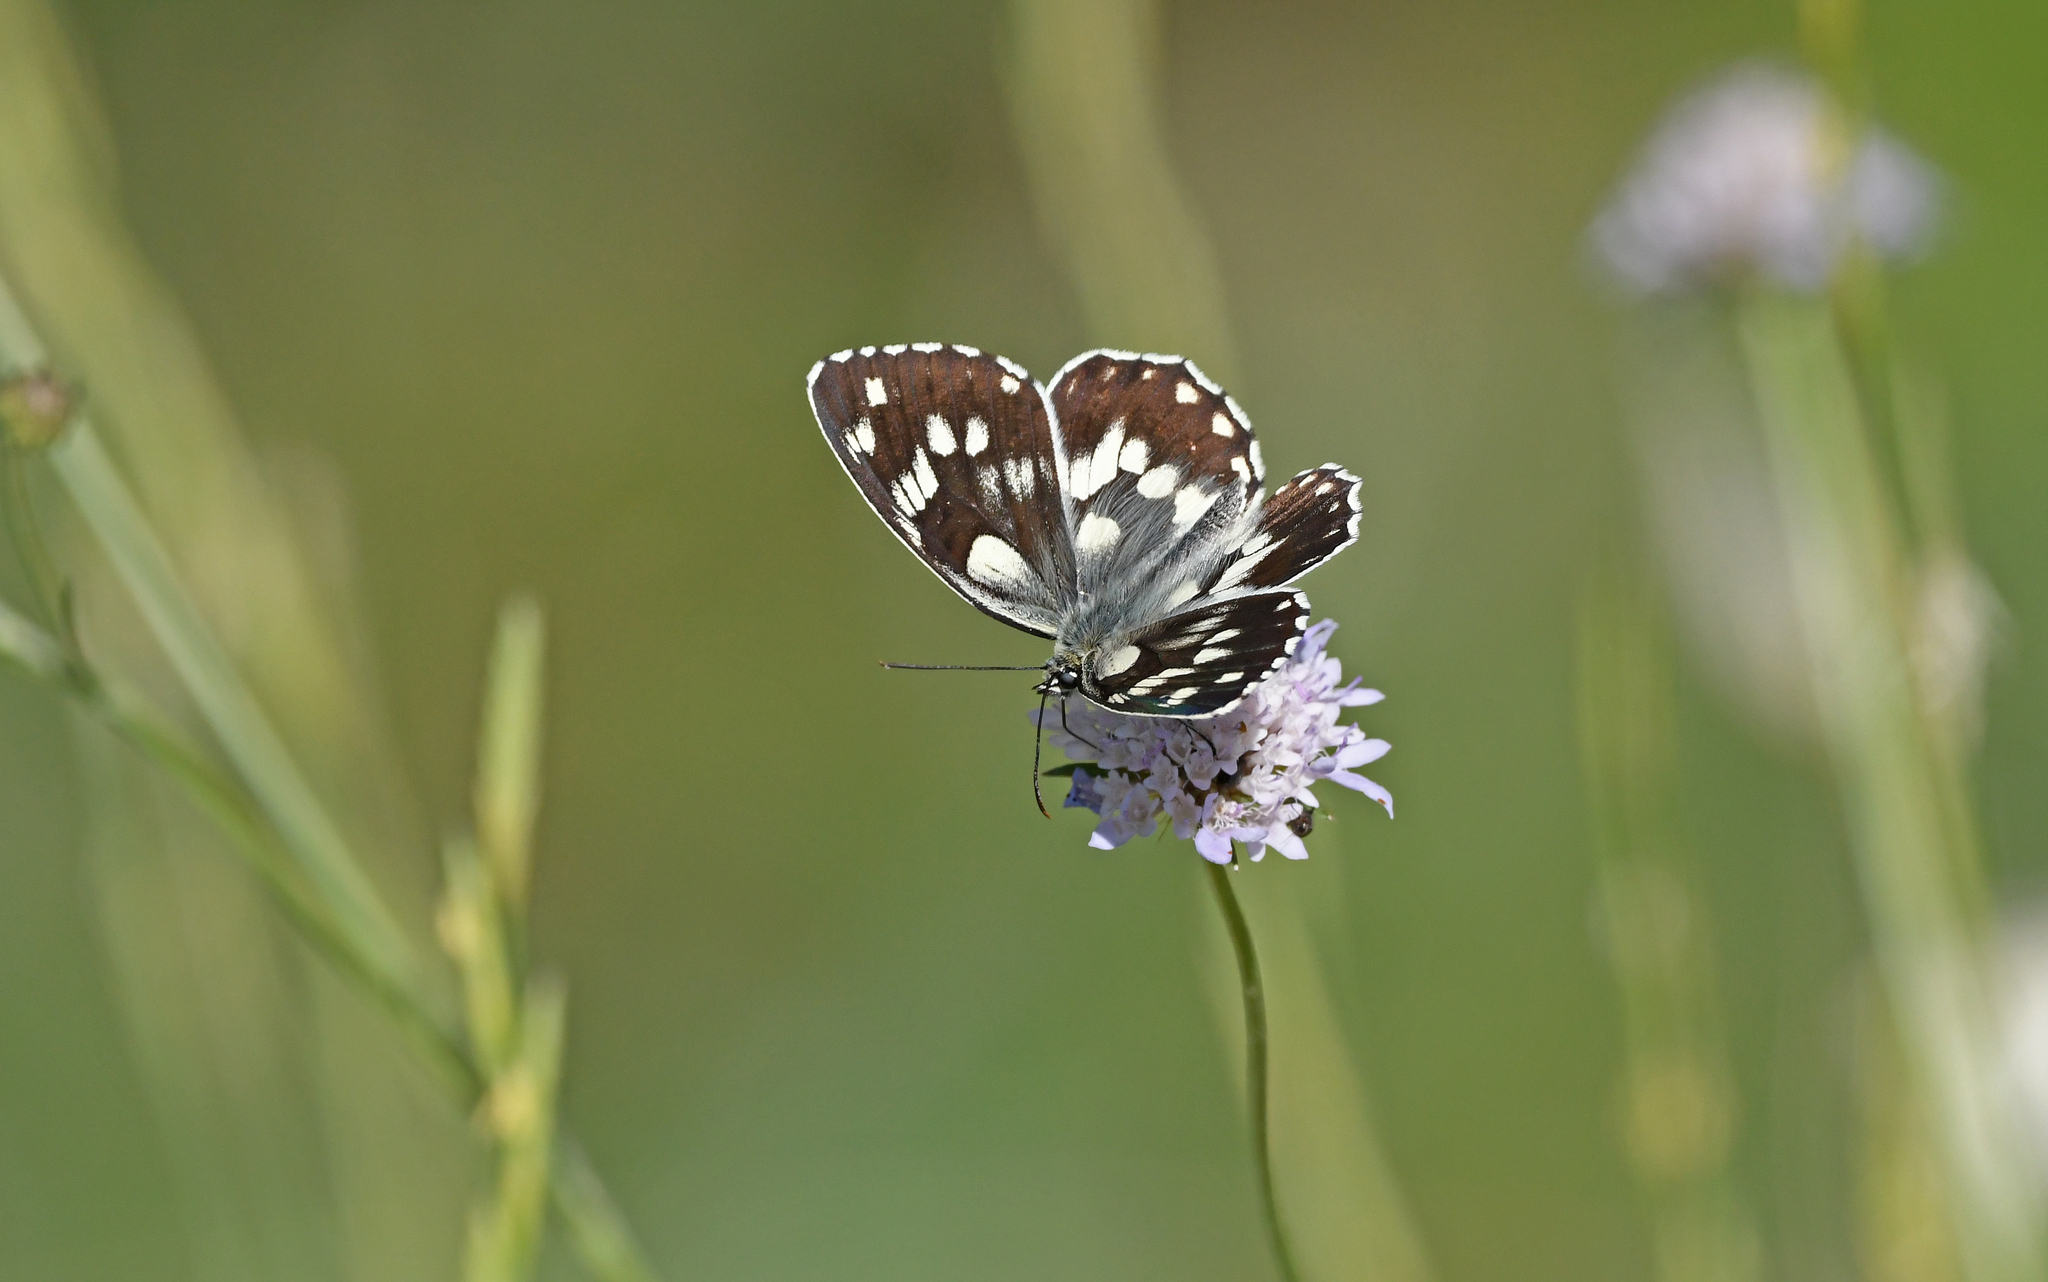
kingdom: Animalia
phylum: Arthropoda
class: Insecta
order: Lepidoptera
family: Nymphalidae
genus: Melanargia
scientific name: Melanargia galathea
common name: Marbled white
